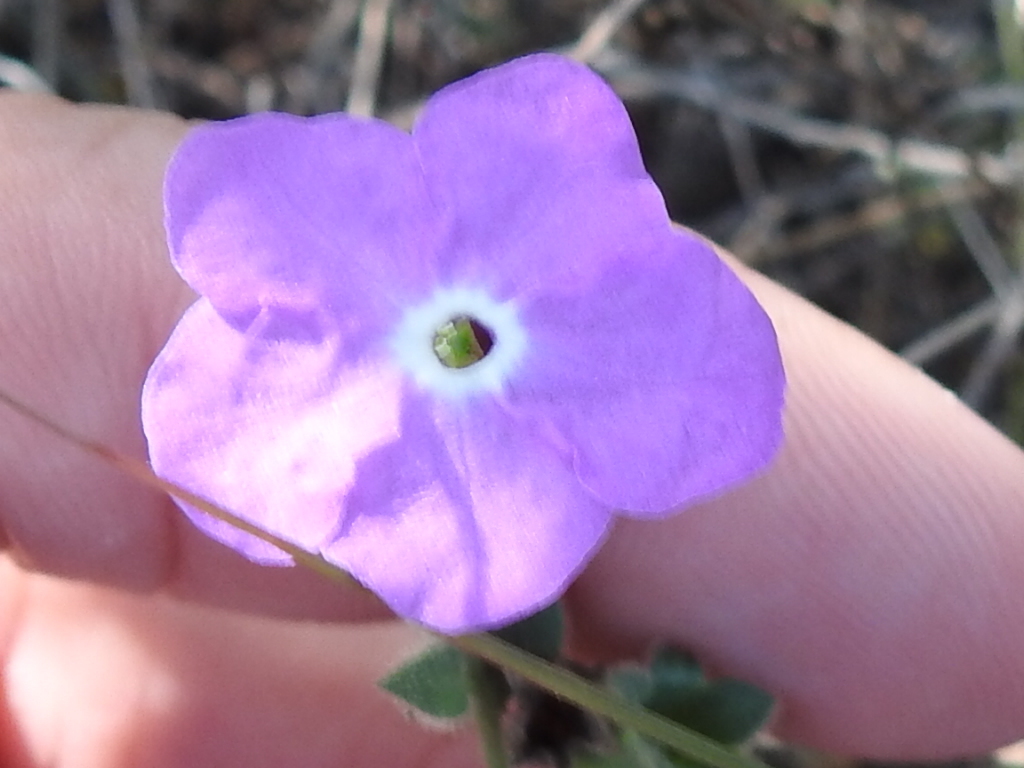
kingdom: Plantae
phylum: Tracheophyta
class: Magnoliopsida
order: Solanales
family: Solanaceae
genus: Hunzikeria
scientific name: Hunzikeria texana
